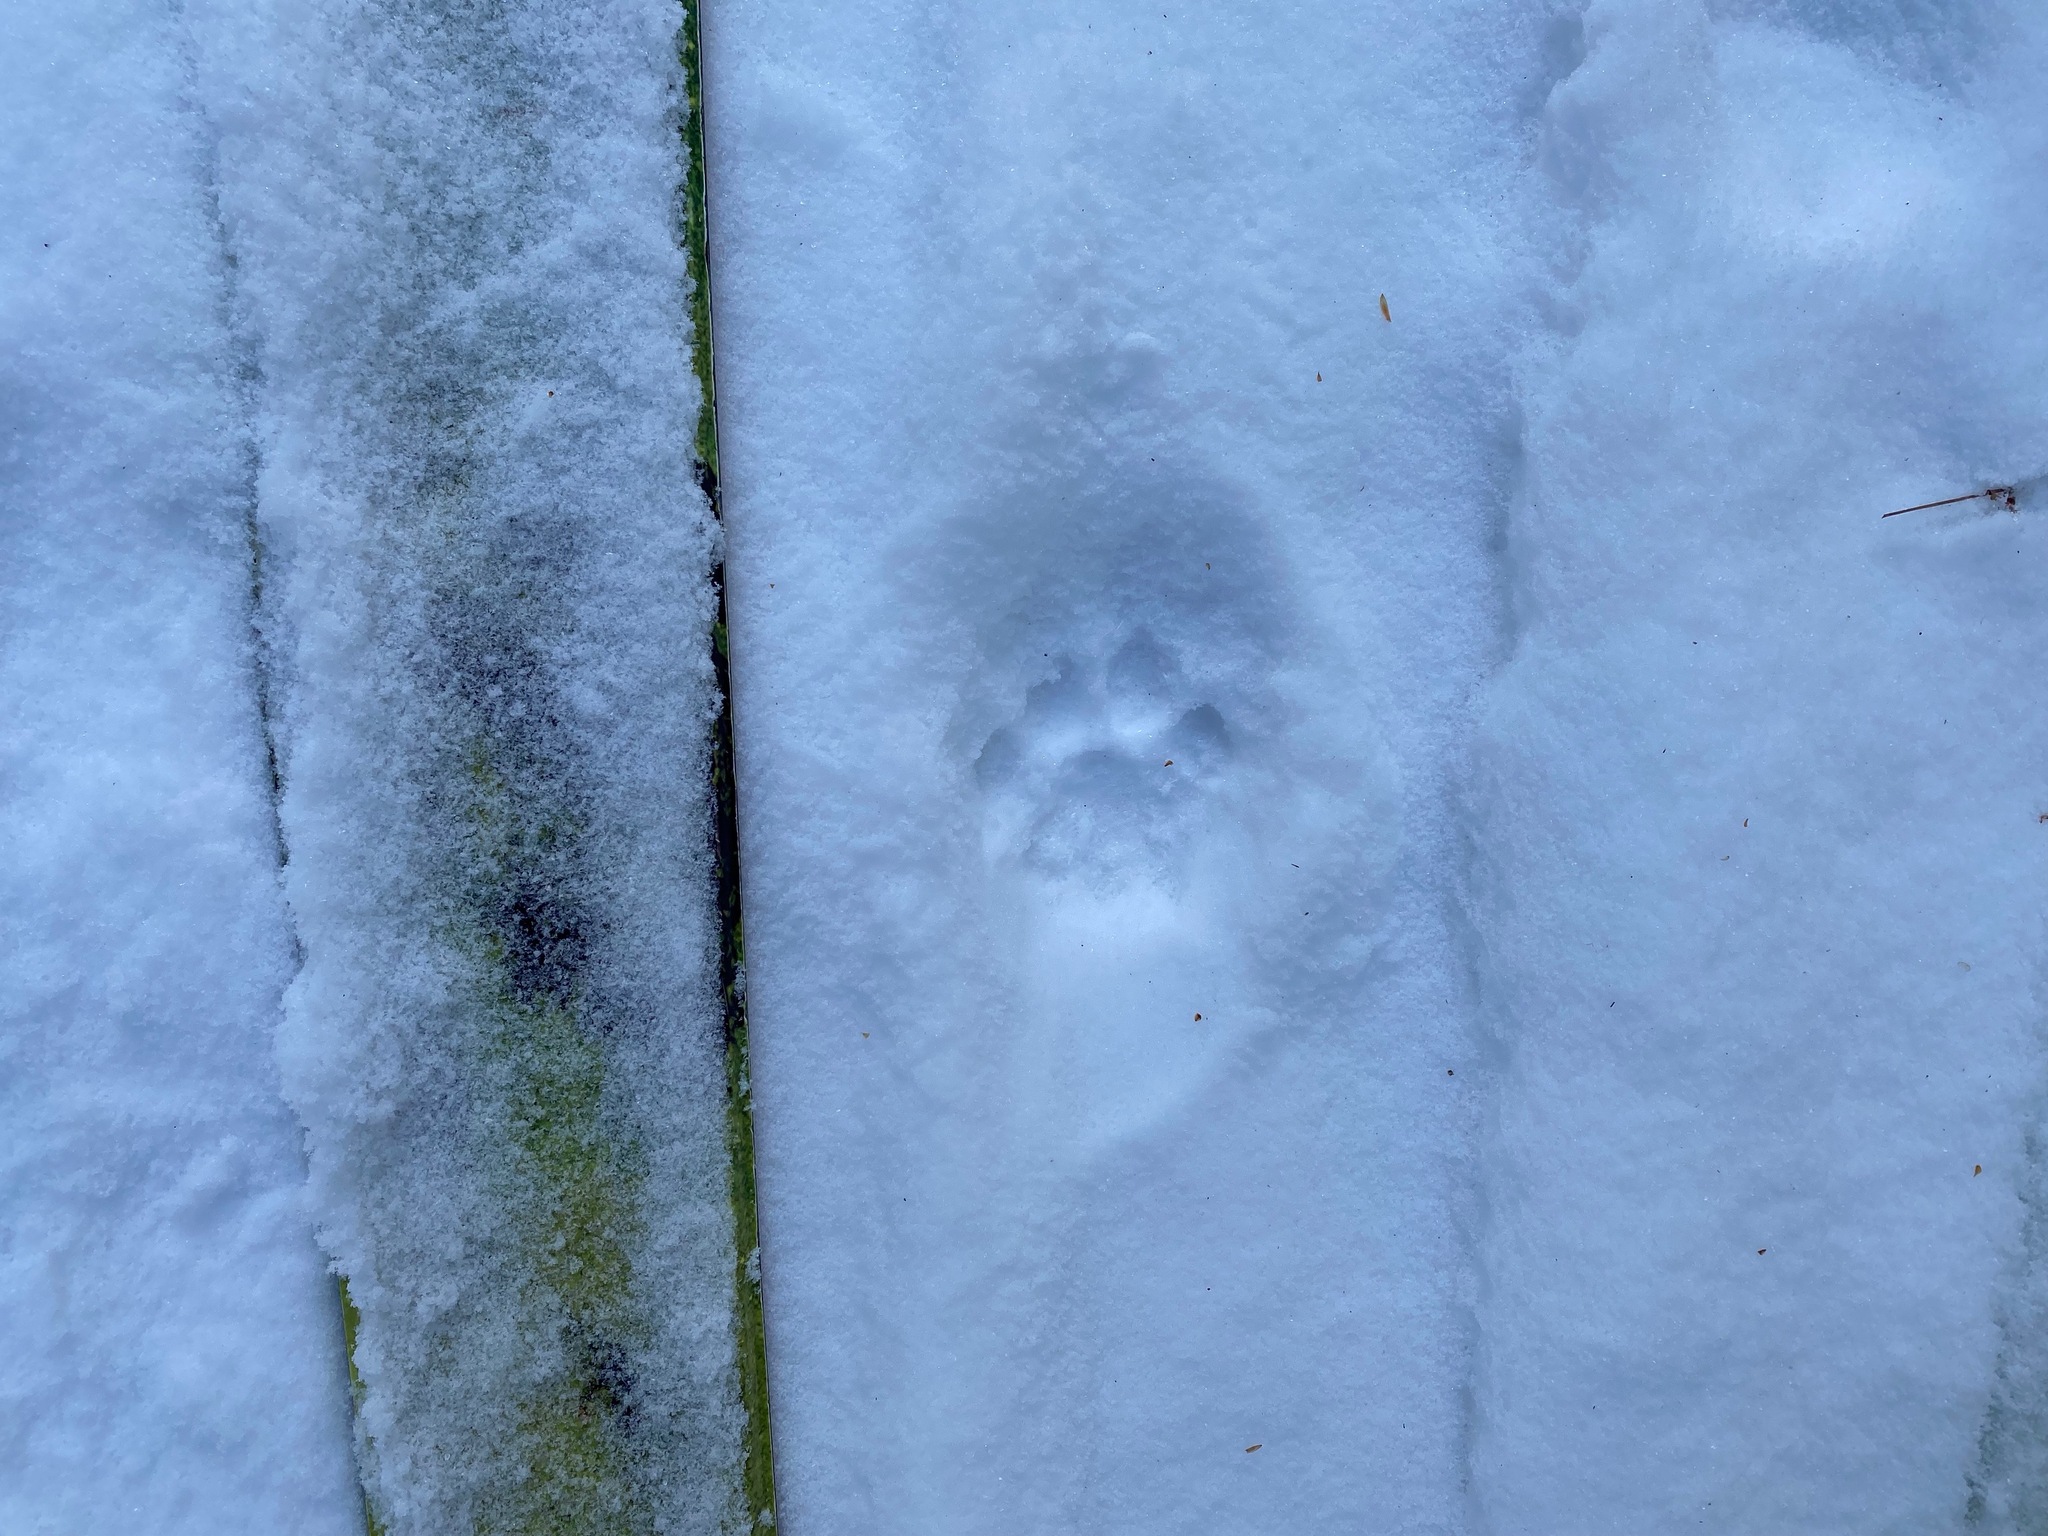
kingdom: Animalia
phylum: Chordata
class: Mammalia
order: Carnivora
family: Felidae
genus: Puma
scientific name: Puma concolor
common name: Puma
